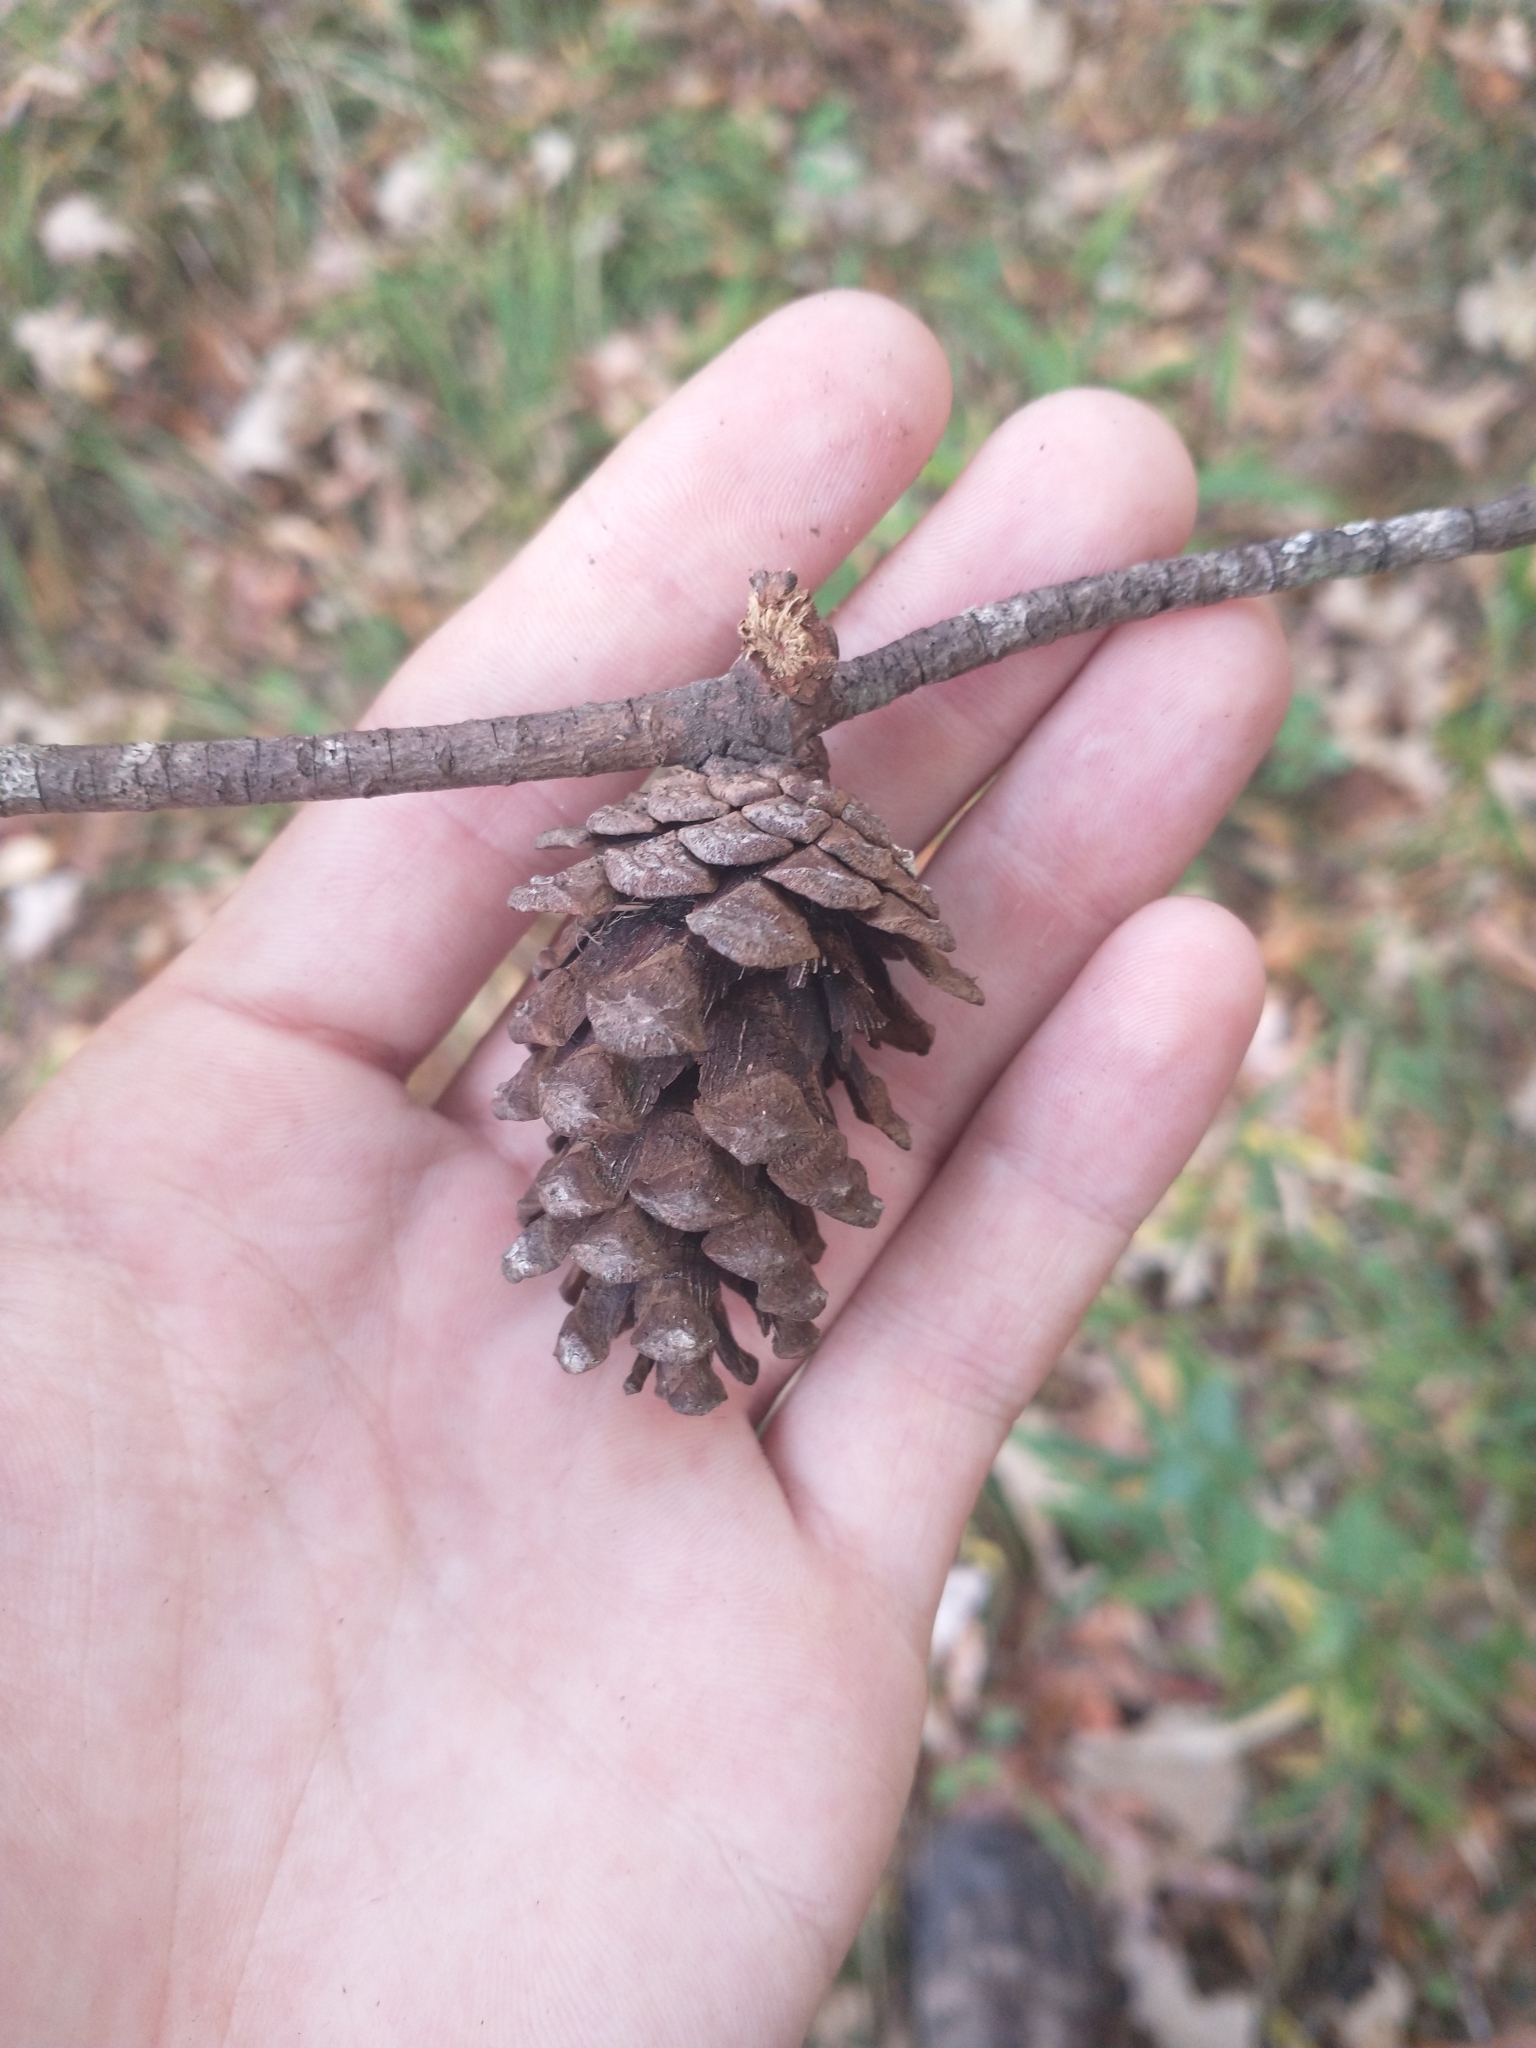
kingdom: Plantae
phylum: Tracheophyta
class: Pinopsida
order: Pinales
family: Pinaceae
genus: Pinus
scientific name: Pinus glabra
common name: Spruce pine
